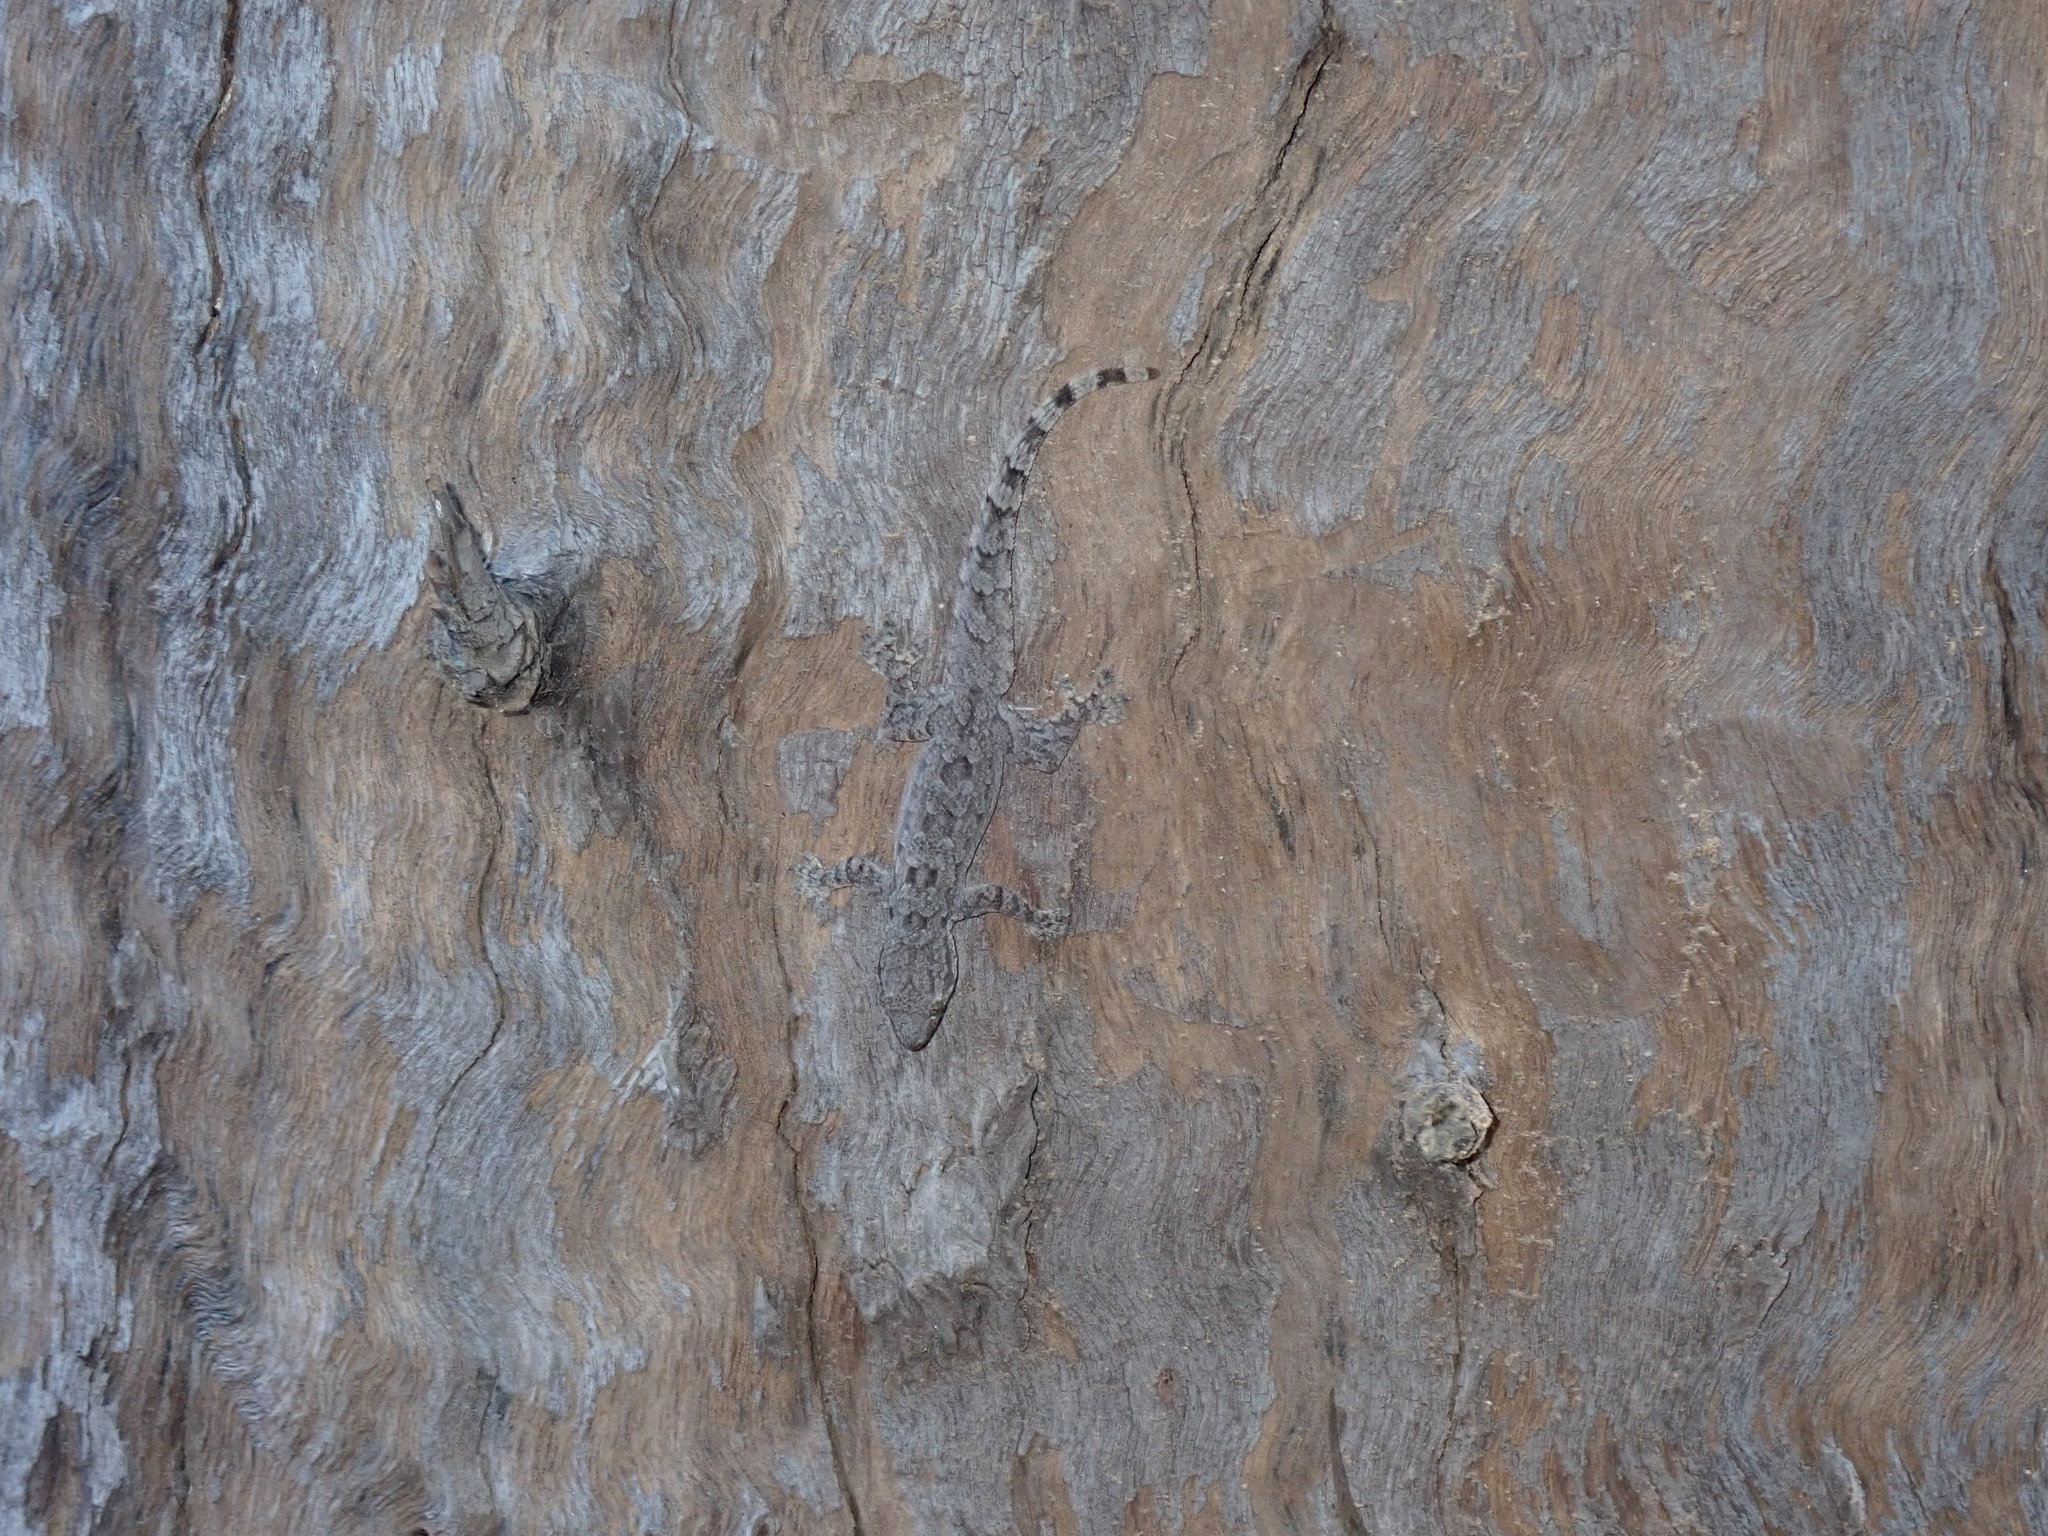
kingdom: Animalia
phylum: Chordata
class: Squamata
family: Gekkonidae
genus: Hemidactylus
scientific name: Hemidactylus platyurus
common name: Flat-tailed house gecko
